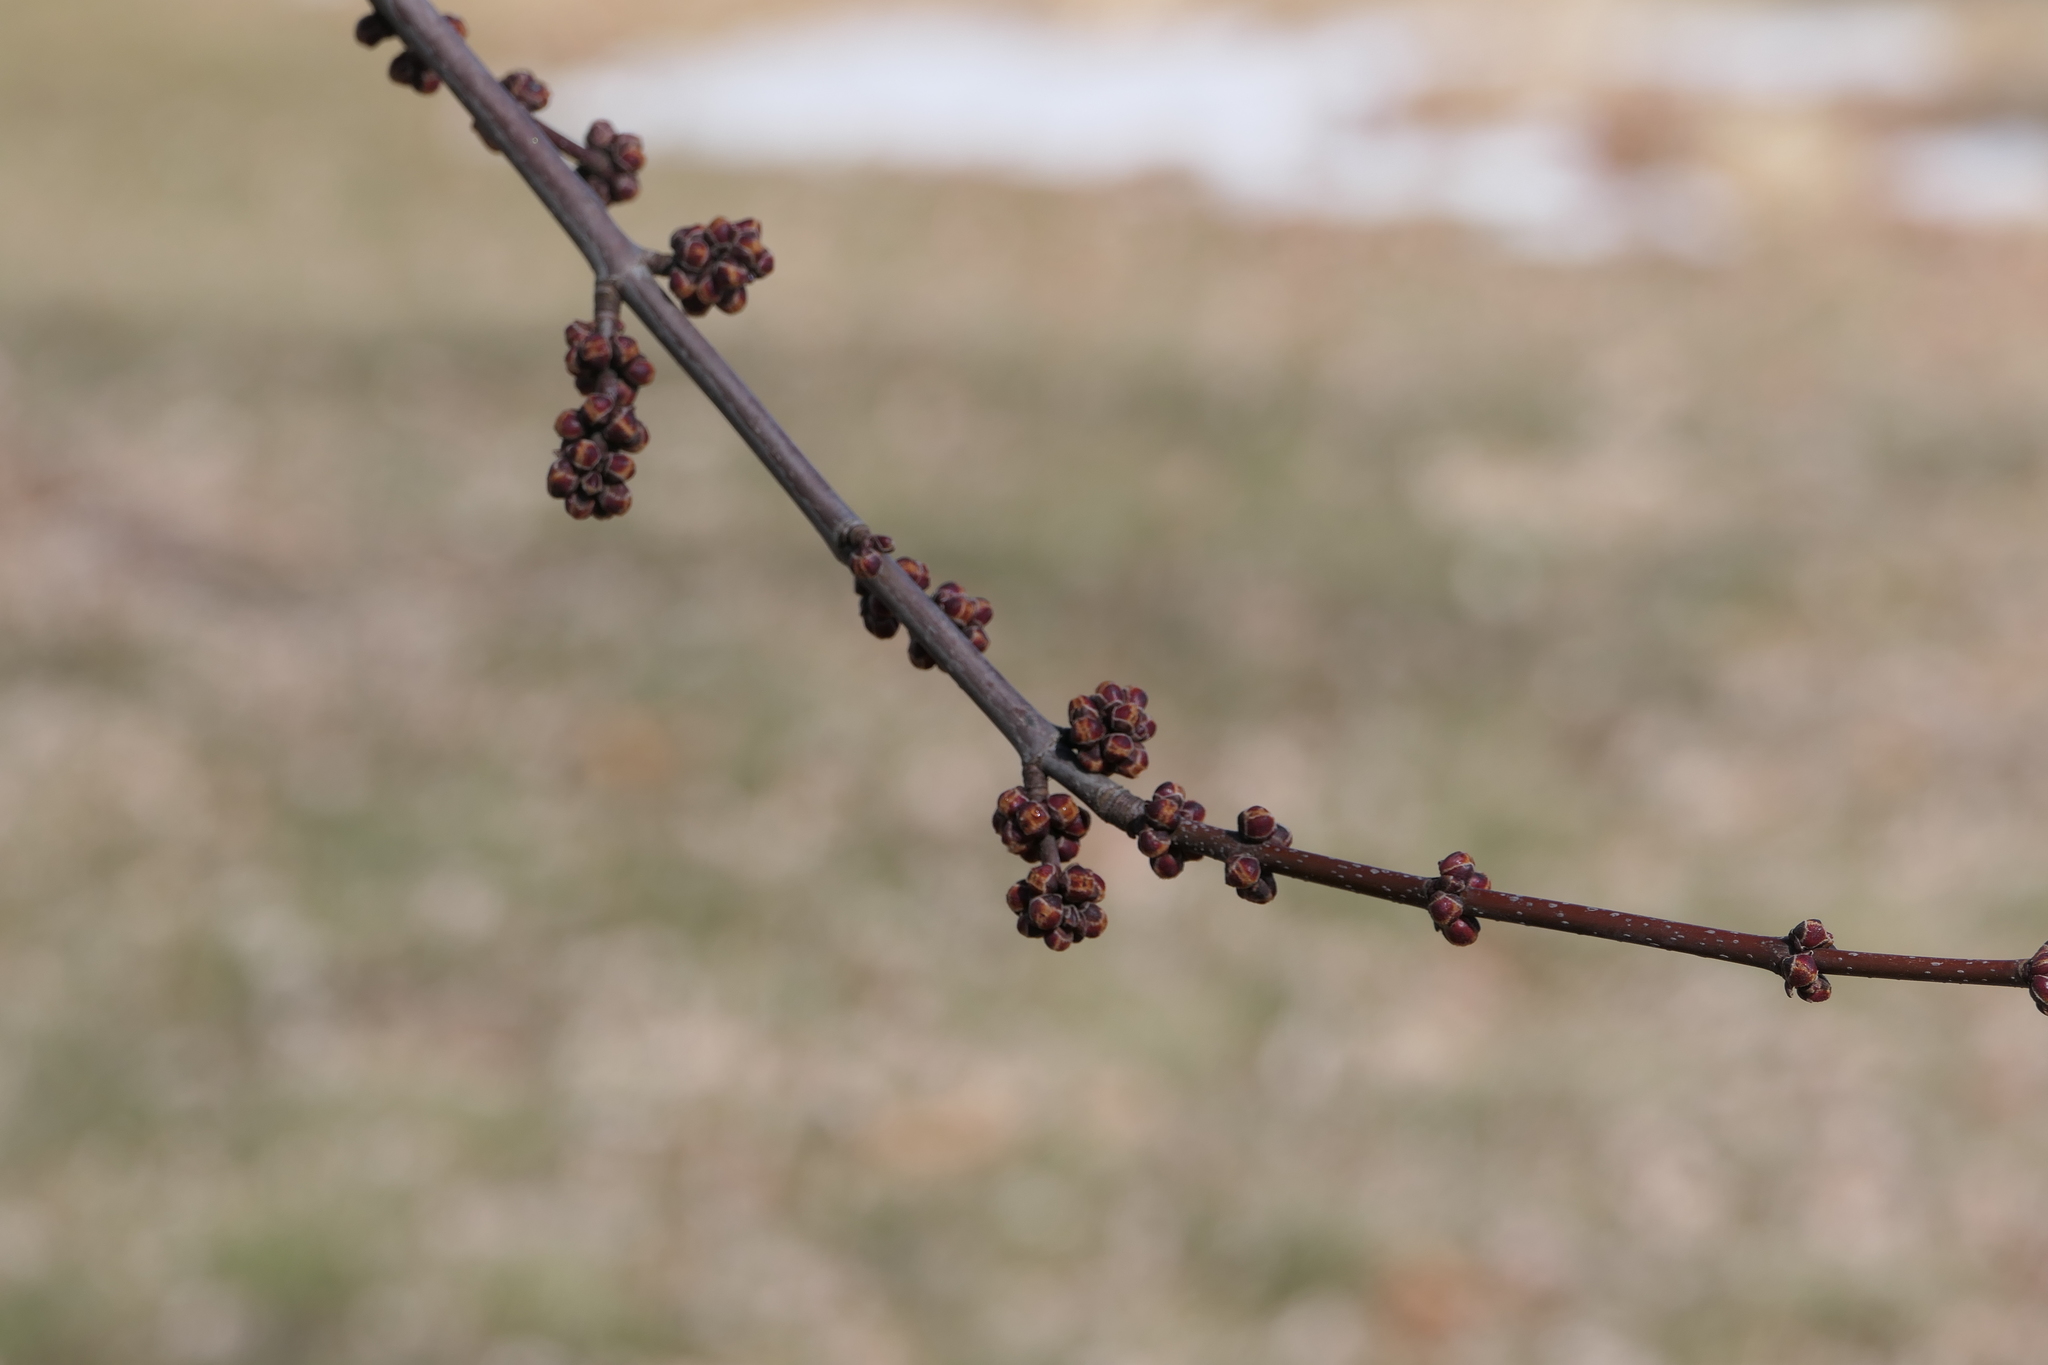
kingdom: Plantae
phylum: Tracheophyta
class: Magnoliopsida
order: Sapindales
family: Sapindaceae
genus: Acer
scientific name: Acer saccharinum
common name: Silver maple
